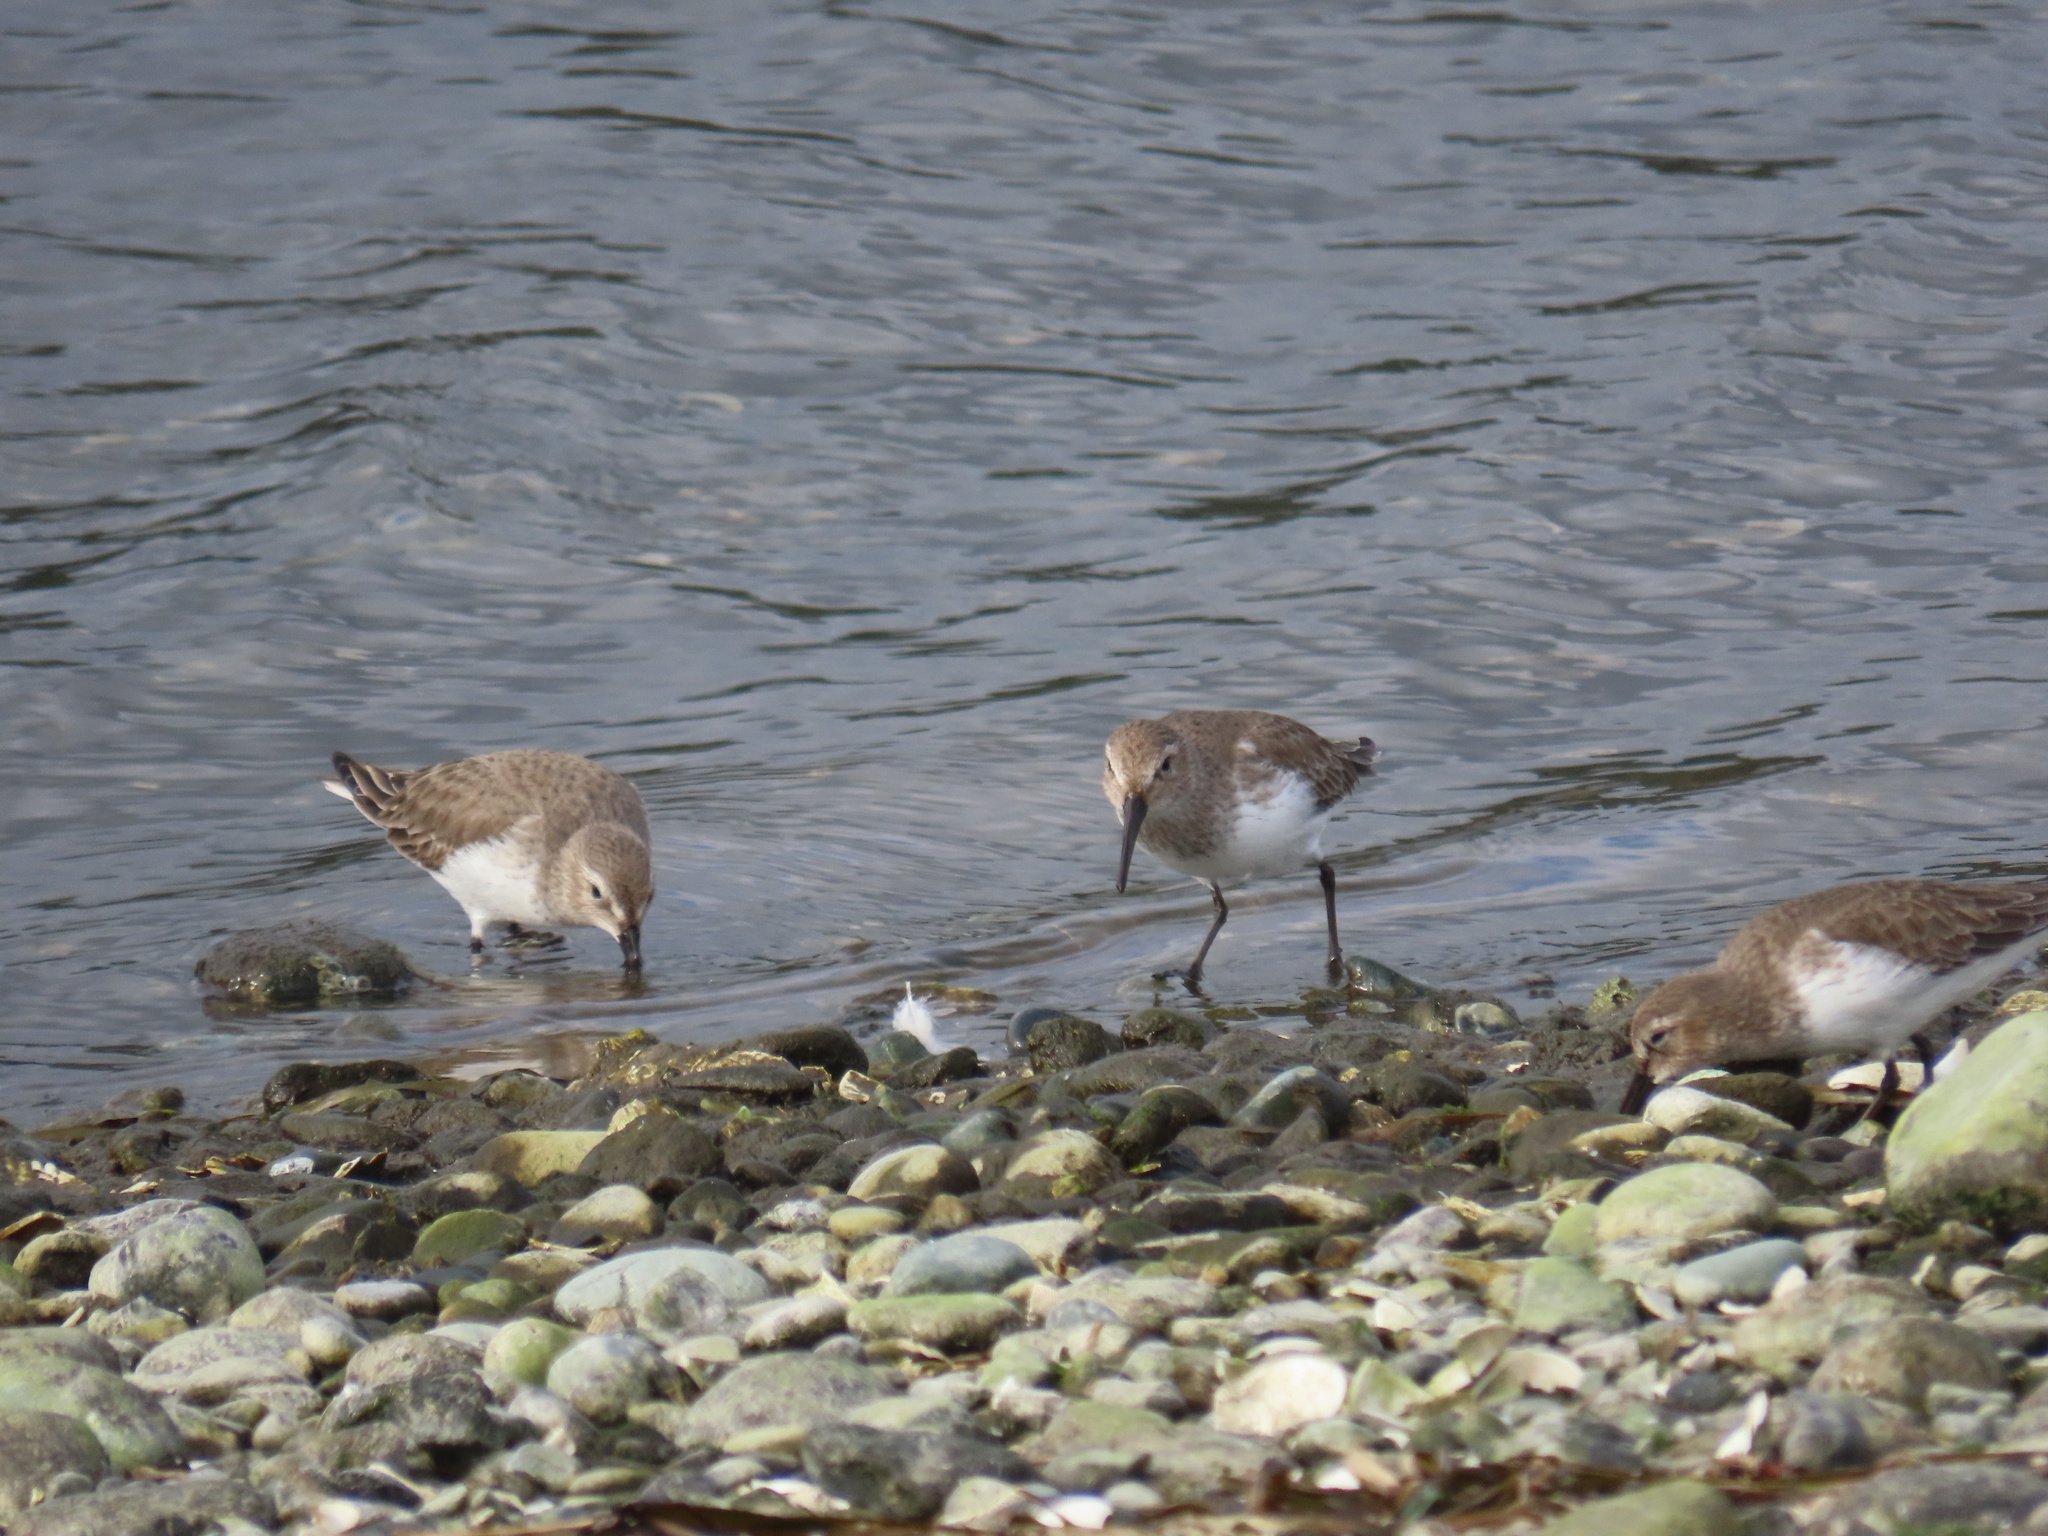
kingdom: Animalia
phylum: Chordata
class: Aves
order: Charadriiformes
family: Scolopacidae
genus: Calidris
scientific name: Calidris alpina
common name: Dunlin
